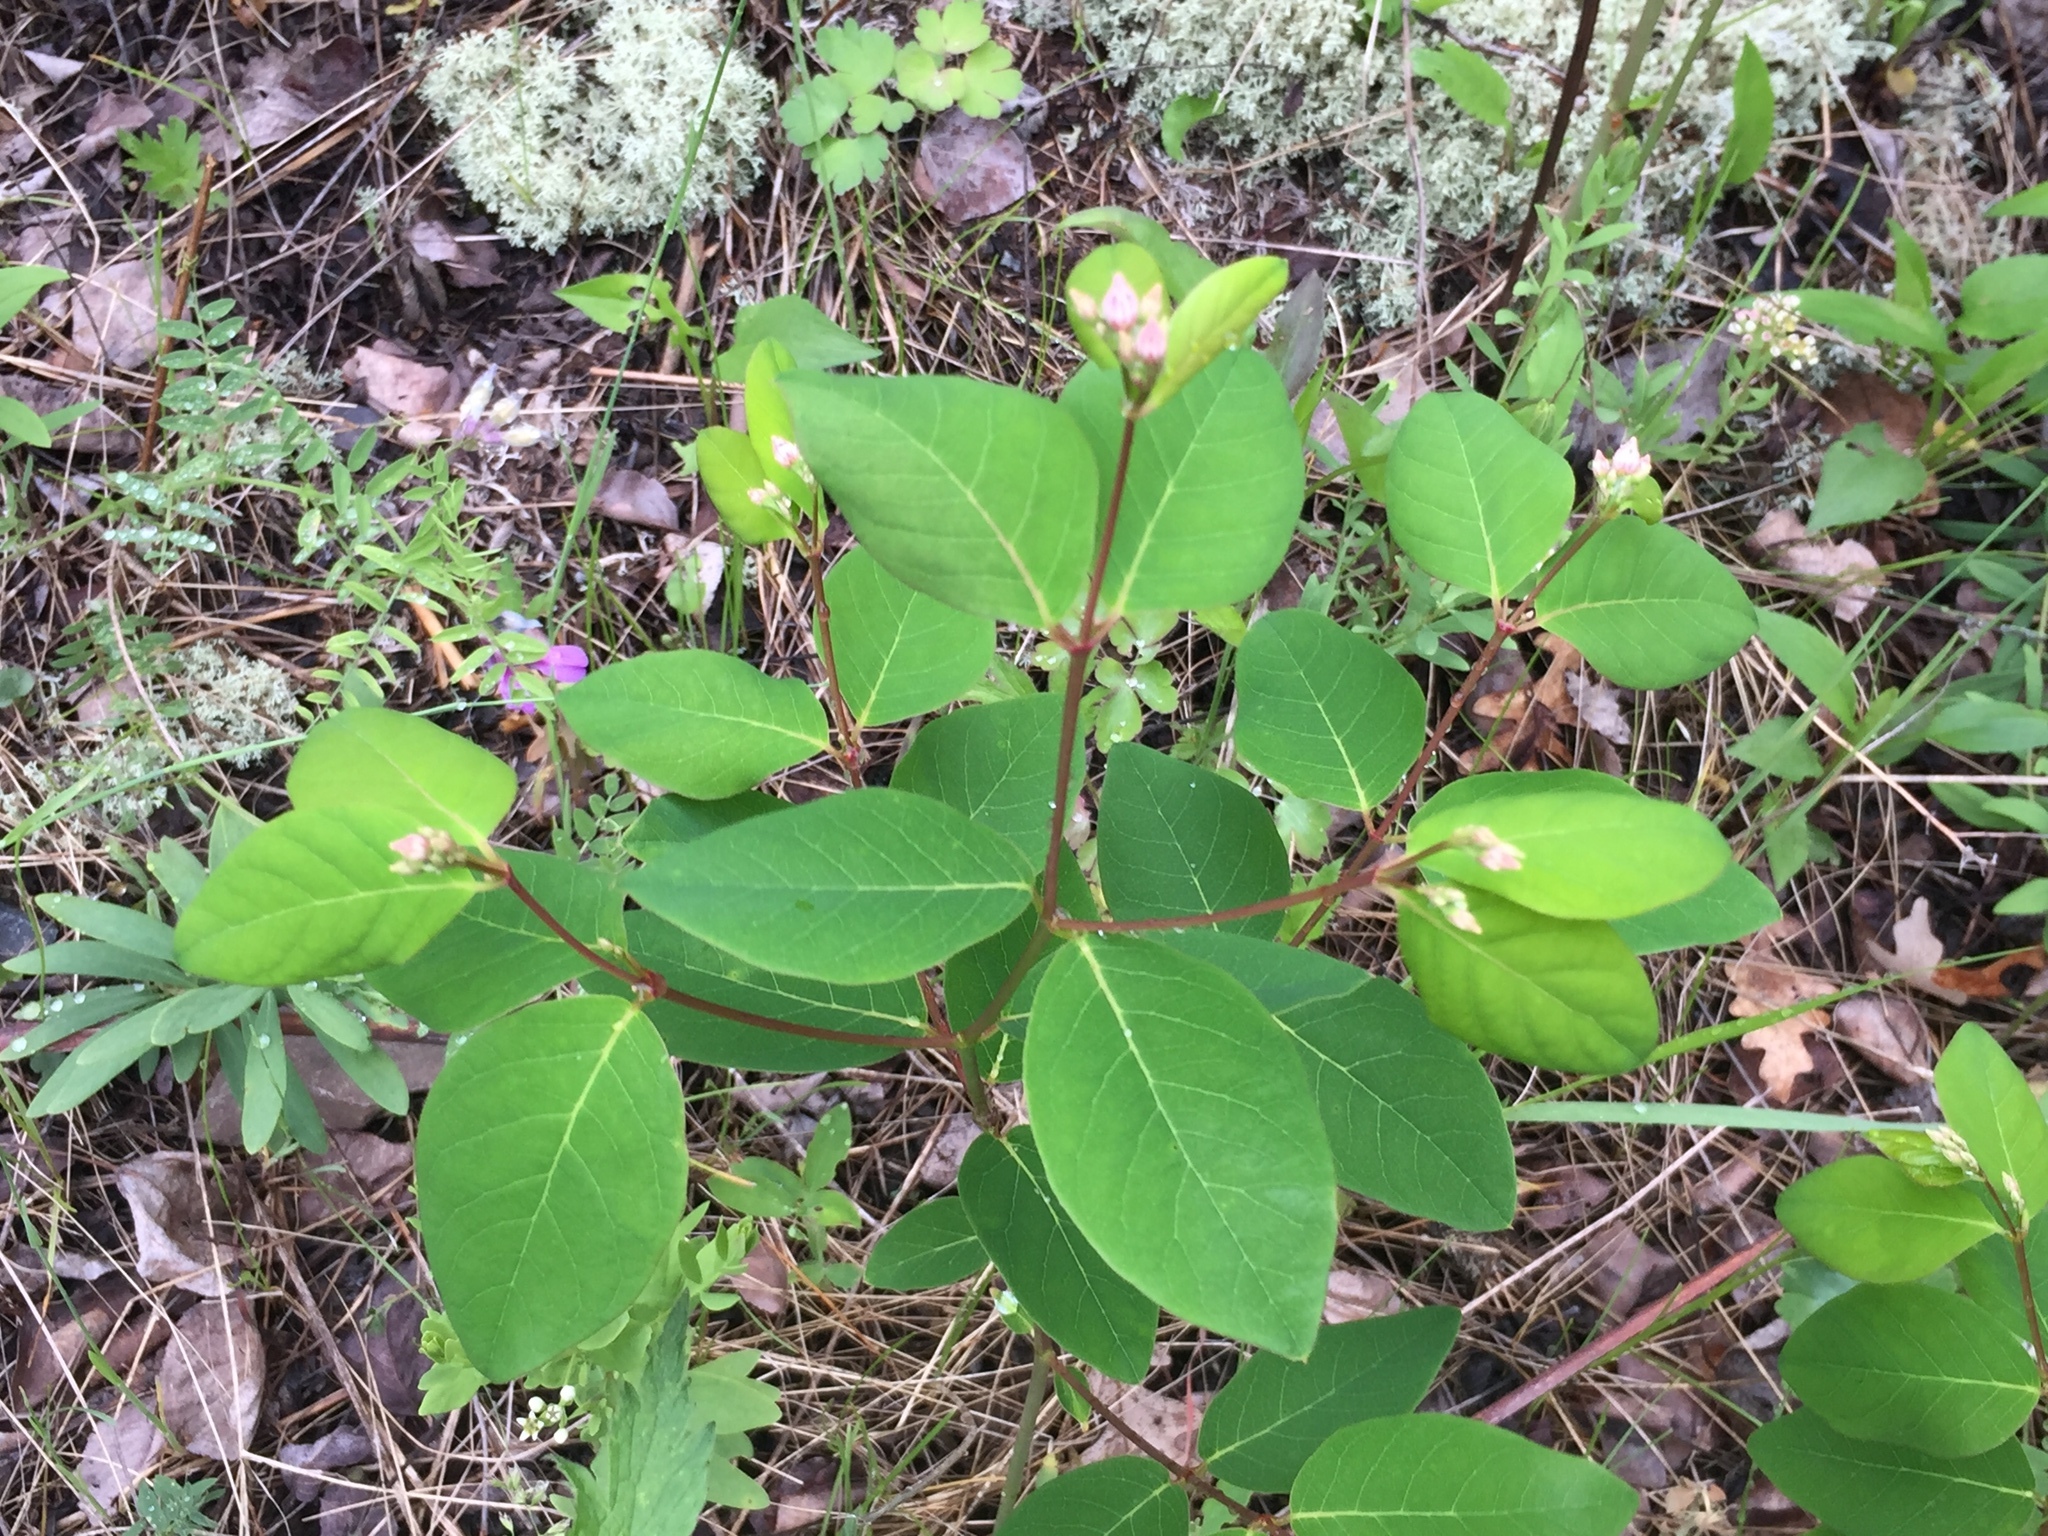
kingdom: Plantae
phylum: Tracheophyta
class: Magnoliopsida
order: Gentianales
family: Apocynaceae
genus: Apocynum
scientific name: Apocynum androsaemifolium
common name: Spreading dogbane
